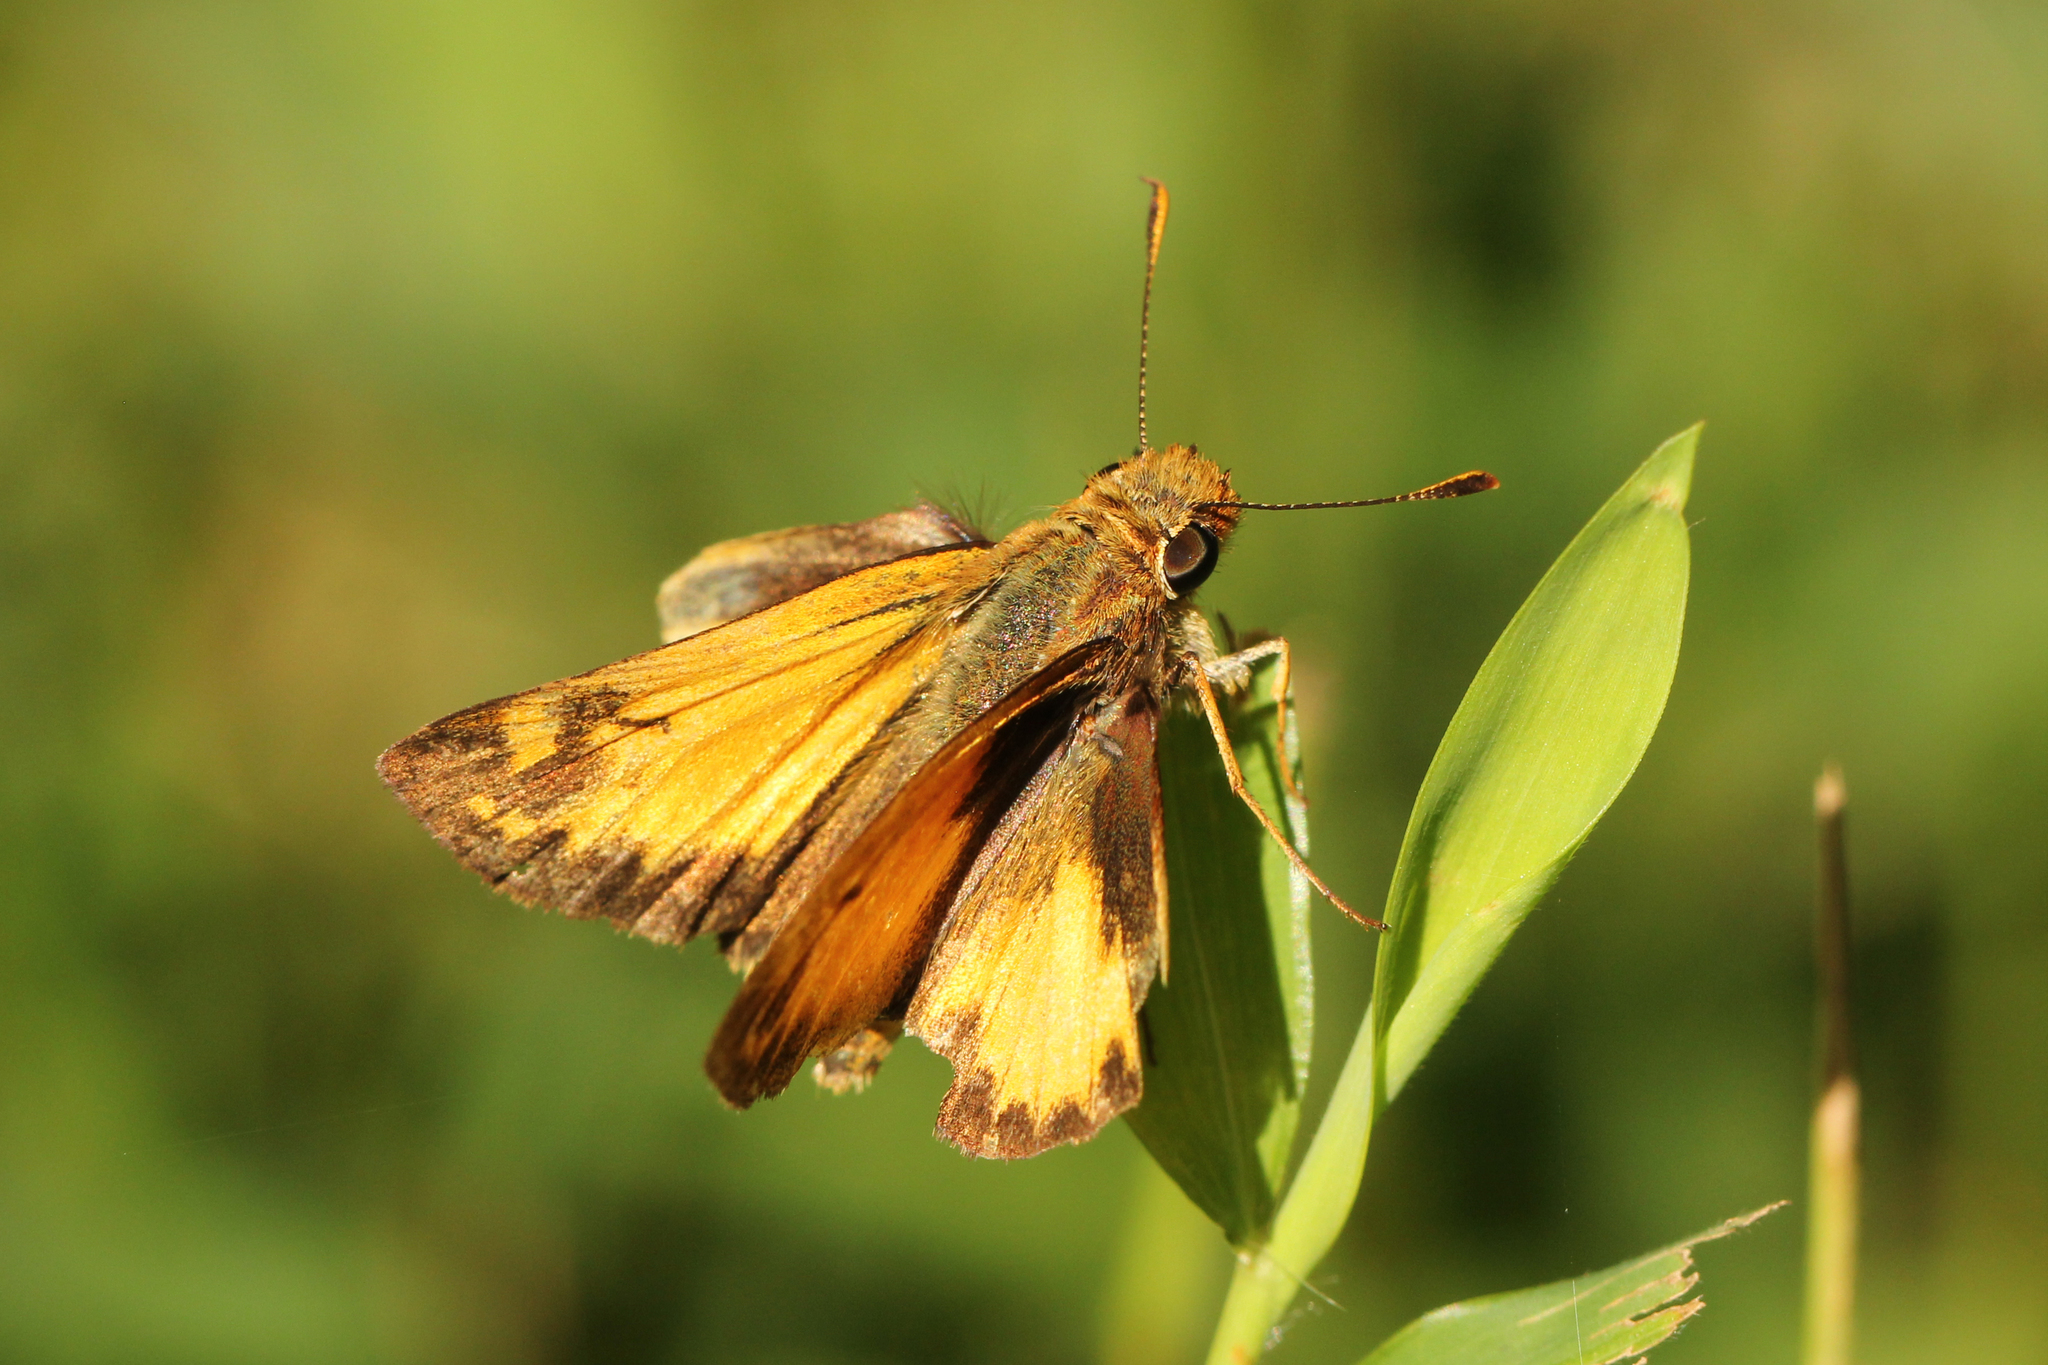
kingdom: Animalia
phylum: Arthropoda
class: Insecta
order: Lepidoptera
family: Hesperiidae
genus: Lon
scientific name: Lon zabulon
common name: Zabulon skipper
